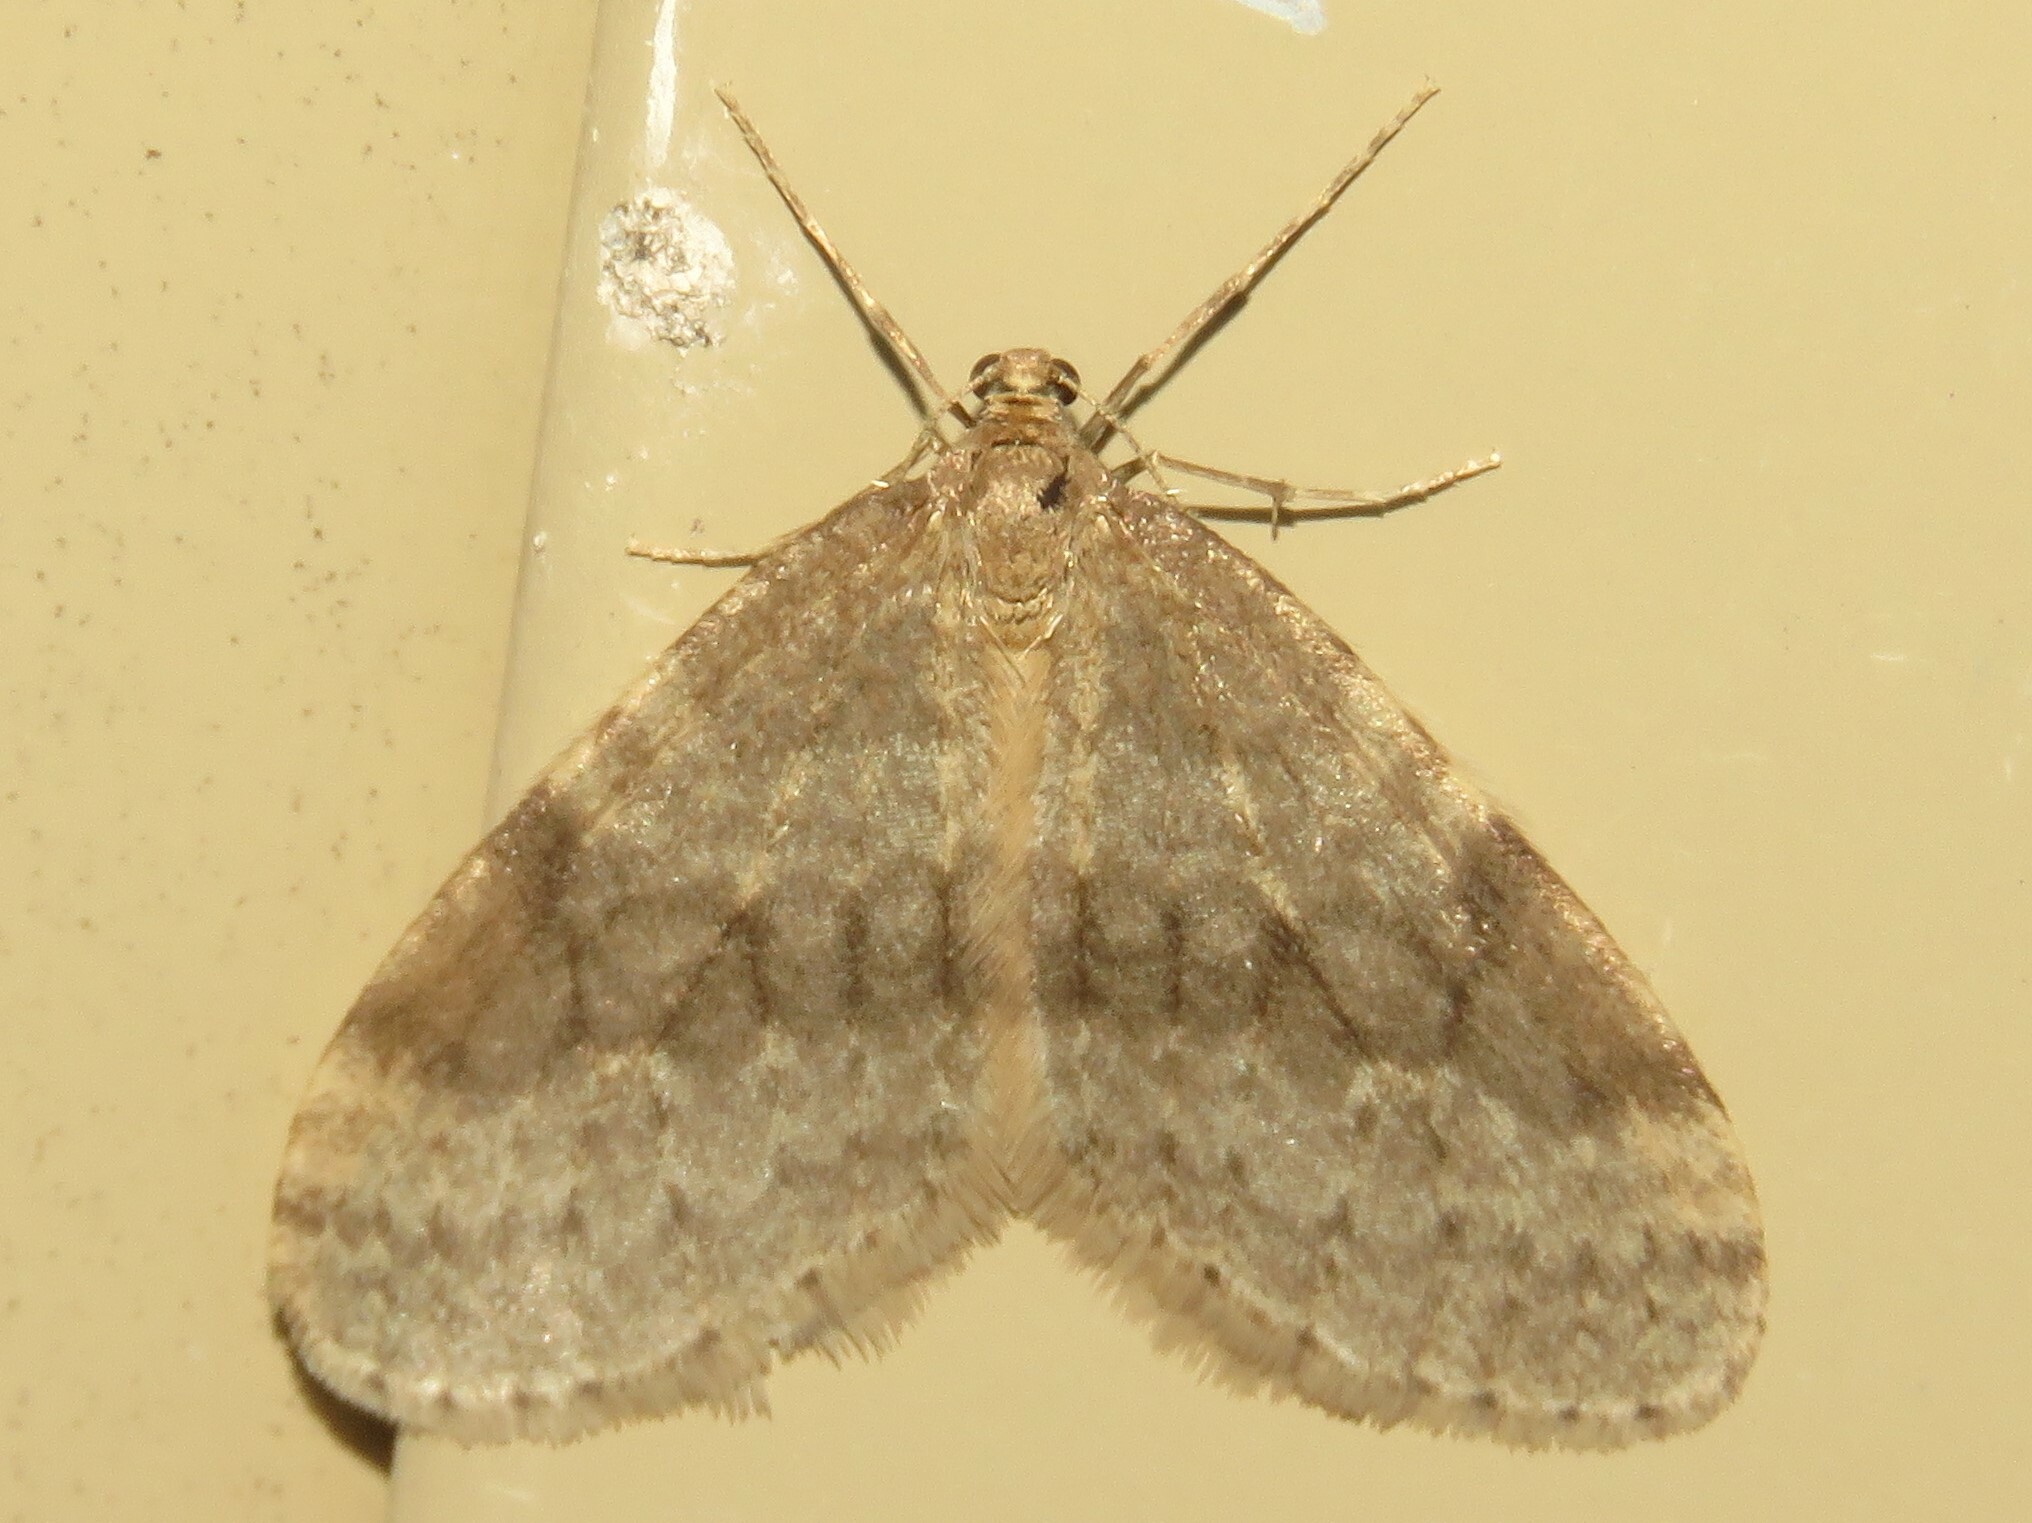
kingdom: Animalia
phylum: Arthropoda
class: Insecta
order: Lepidoptera
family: Geometridae
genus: Operophtera
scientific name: Operophtera bruceata
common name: Bruce spanworm
